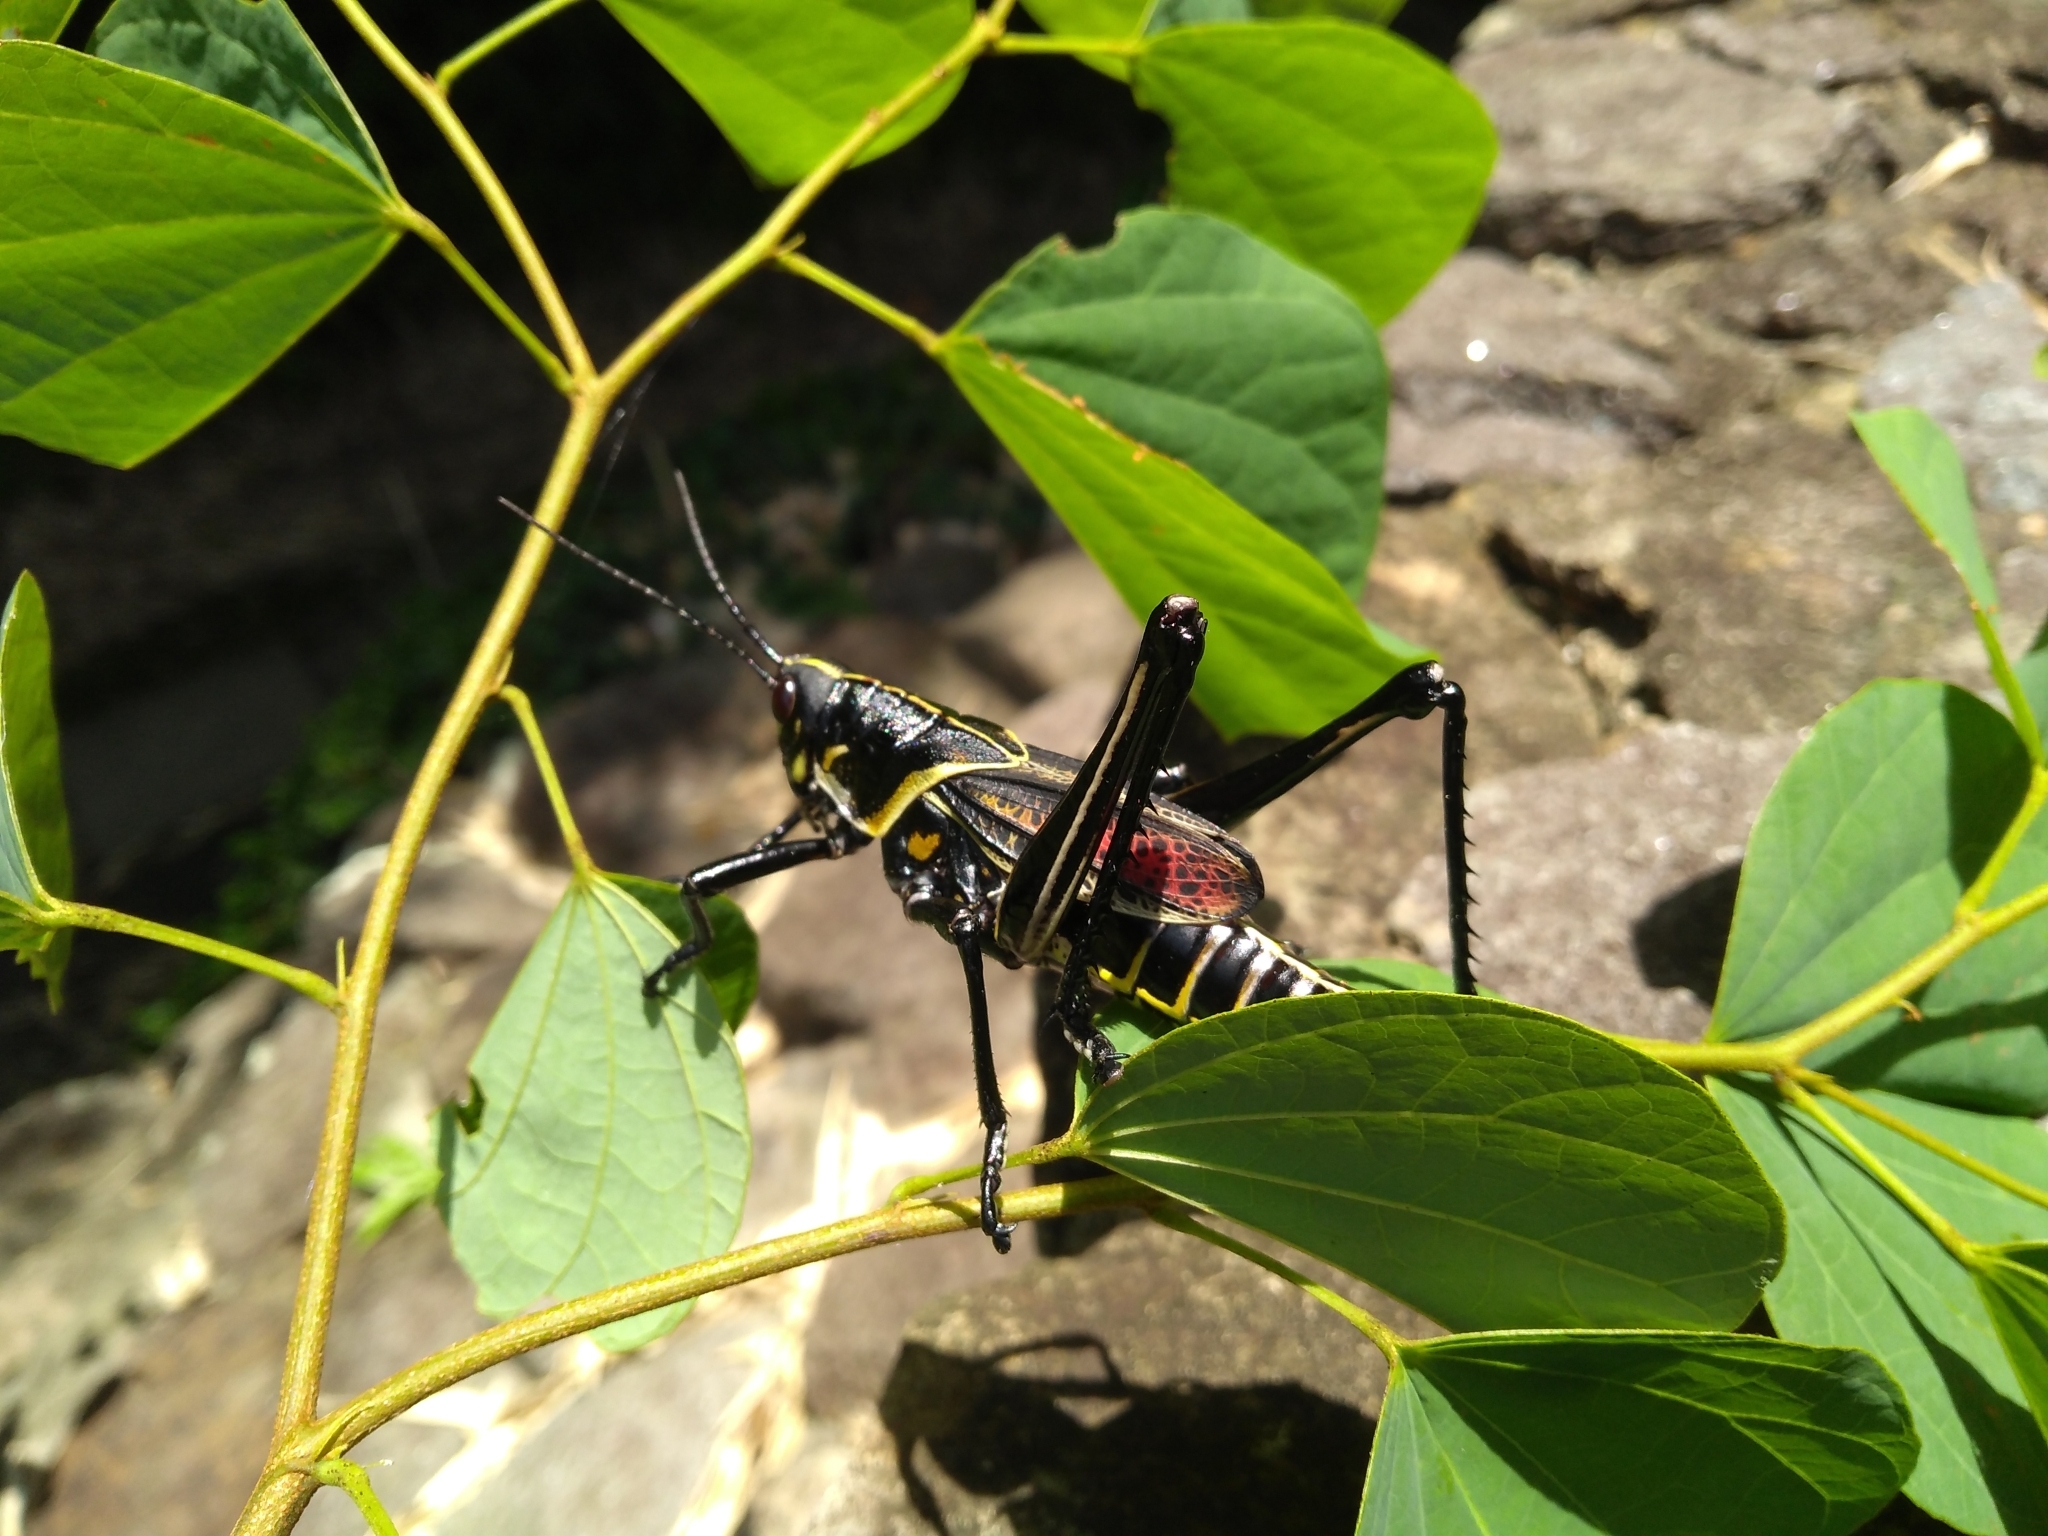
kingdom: Animalia
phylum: Arthropoda
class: Insecta
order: Orthoptera
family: Romaleidae
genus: Romalea
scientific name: Romalea microptera
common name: Eastern lubber grasshopper
